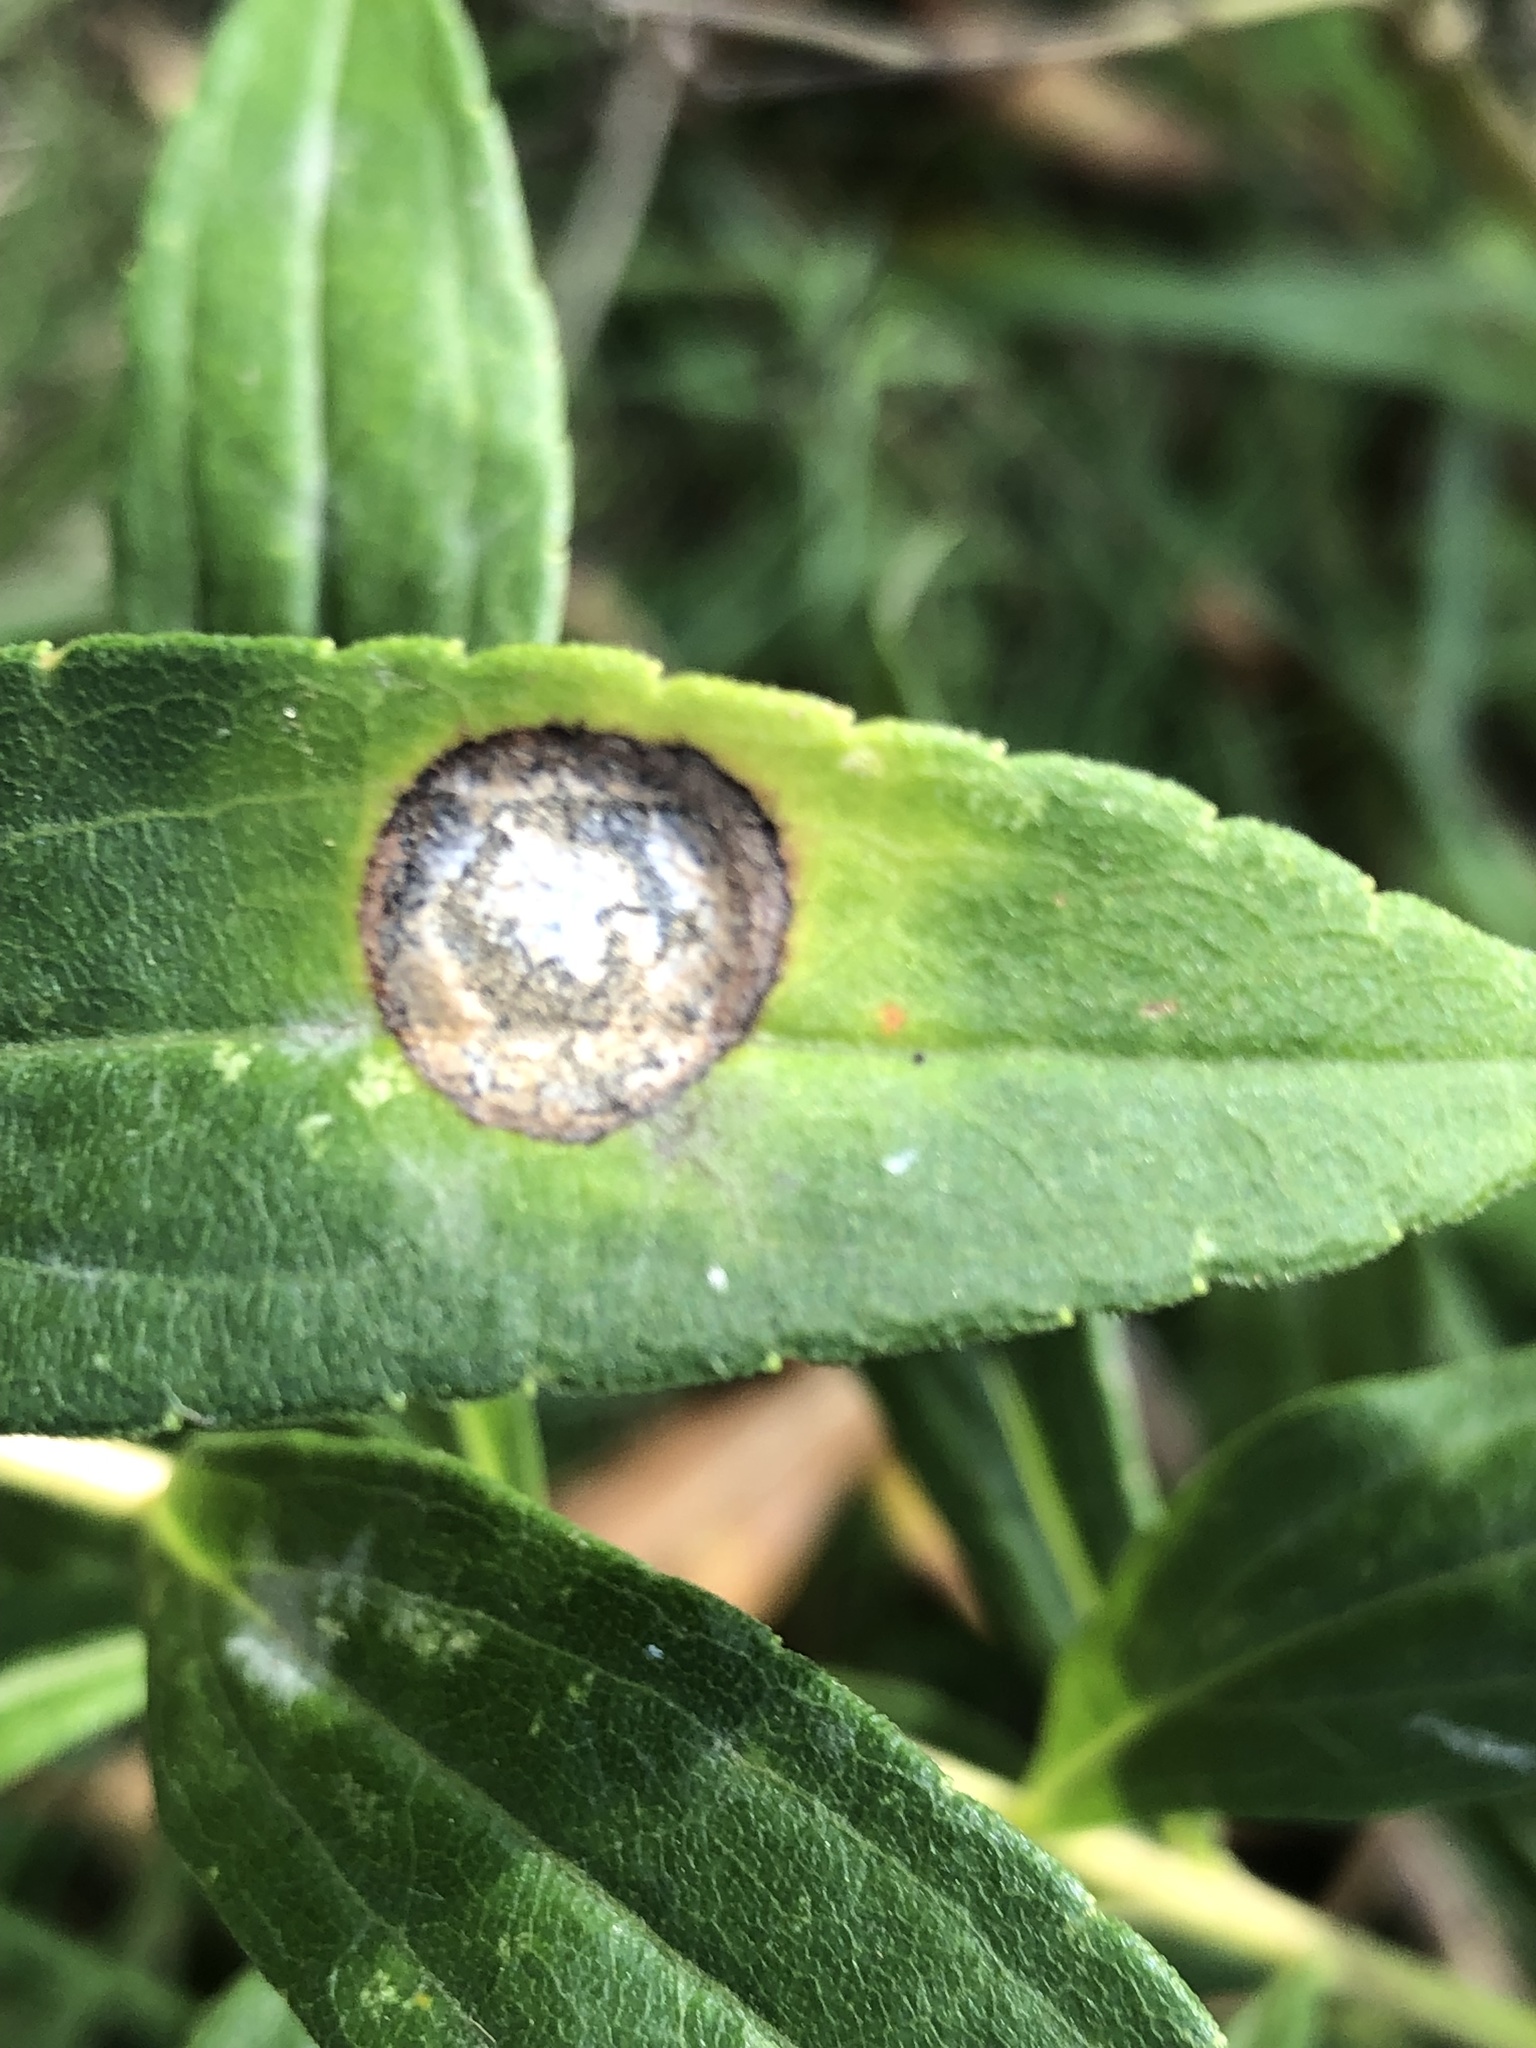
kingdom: Animalia
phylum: Arthropoda
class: Insecta
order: Diptera
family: Cecidomyiidae
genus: Asteromyia
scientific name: Asteromyia carbonifera
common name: Carbonifera goldenrod gall midge
